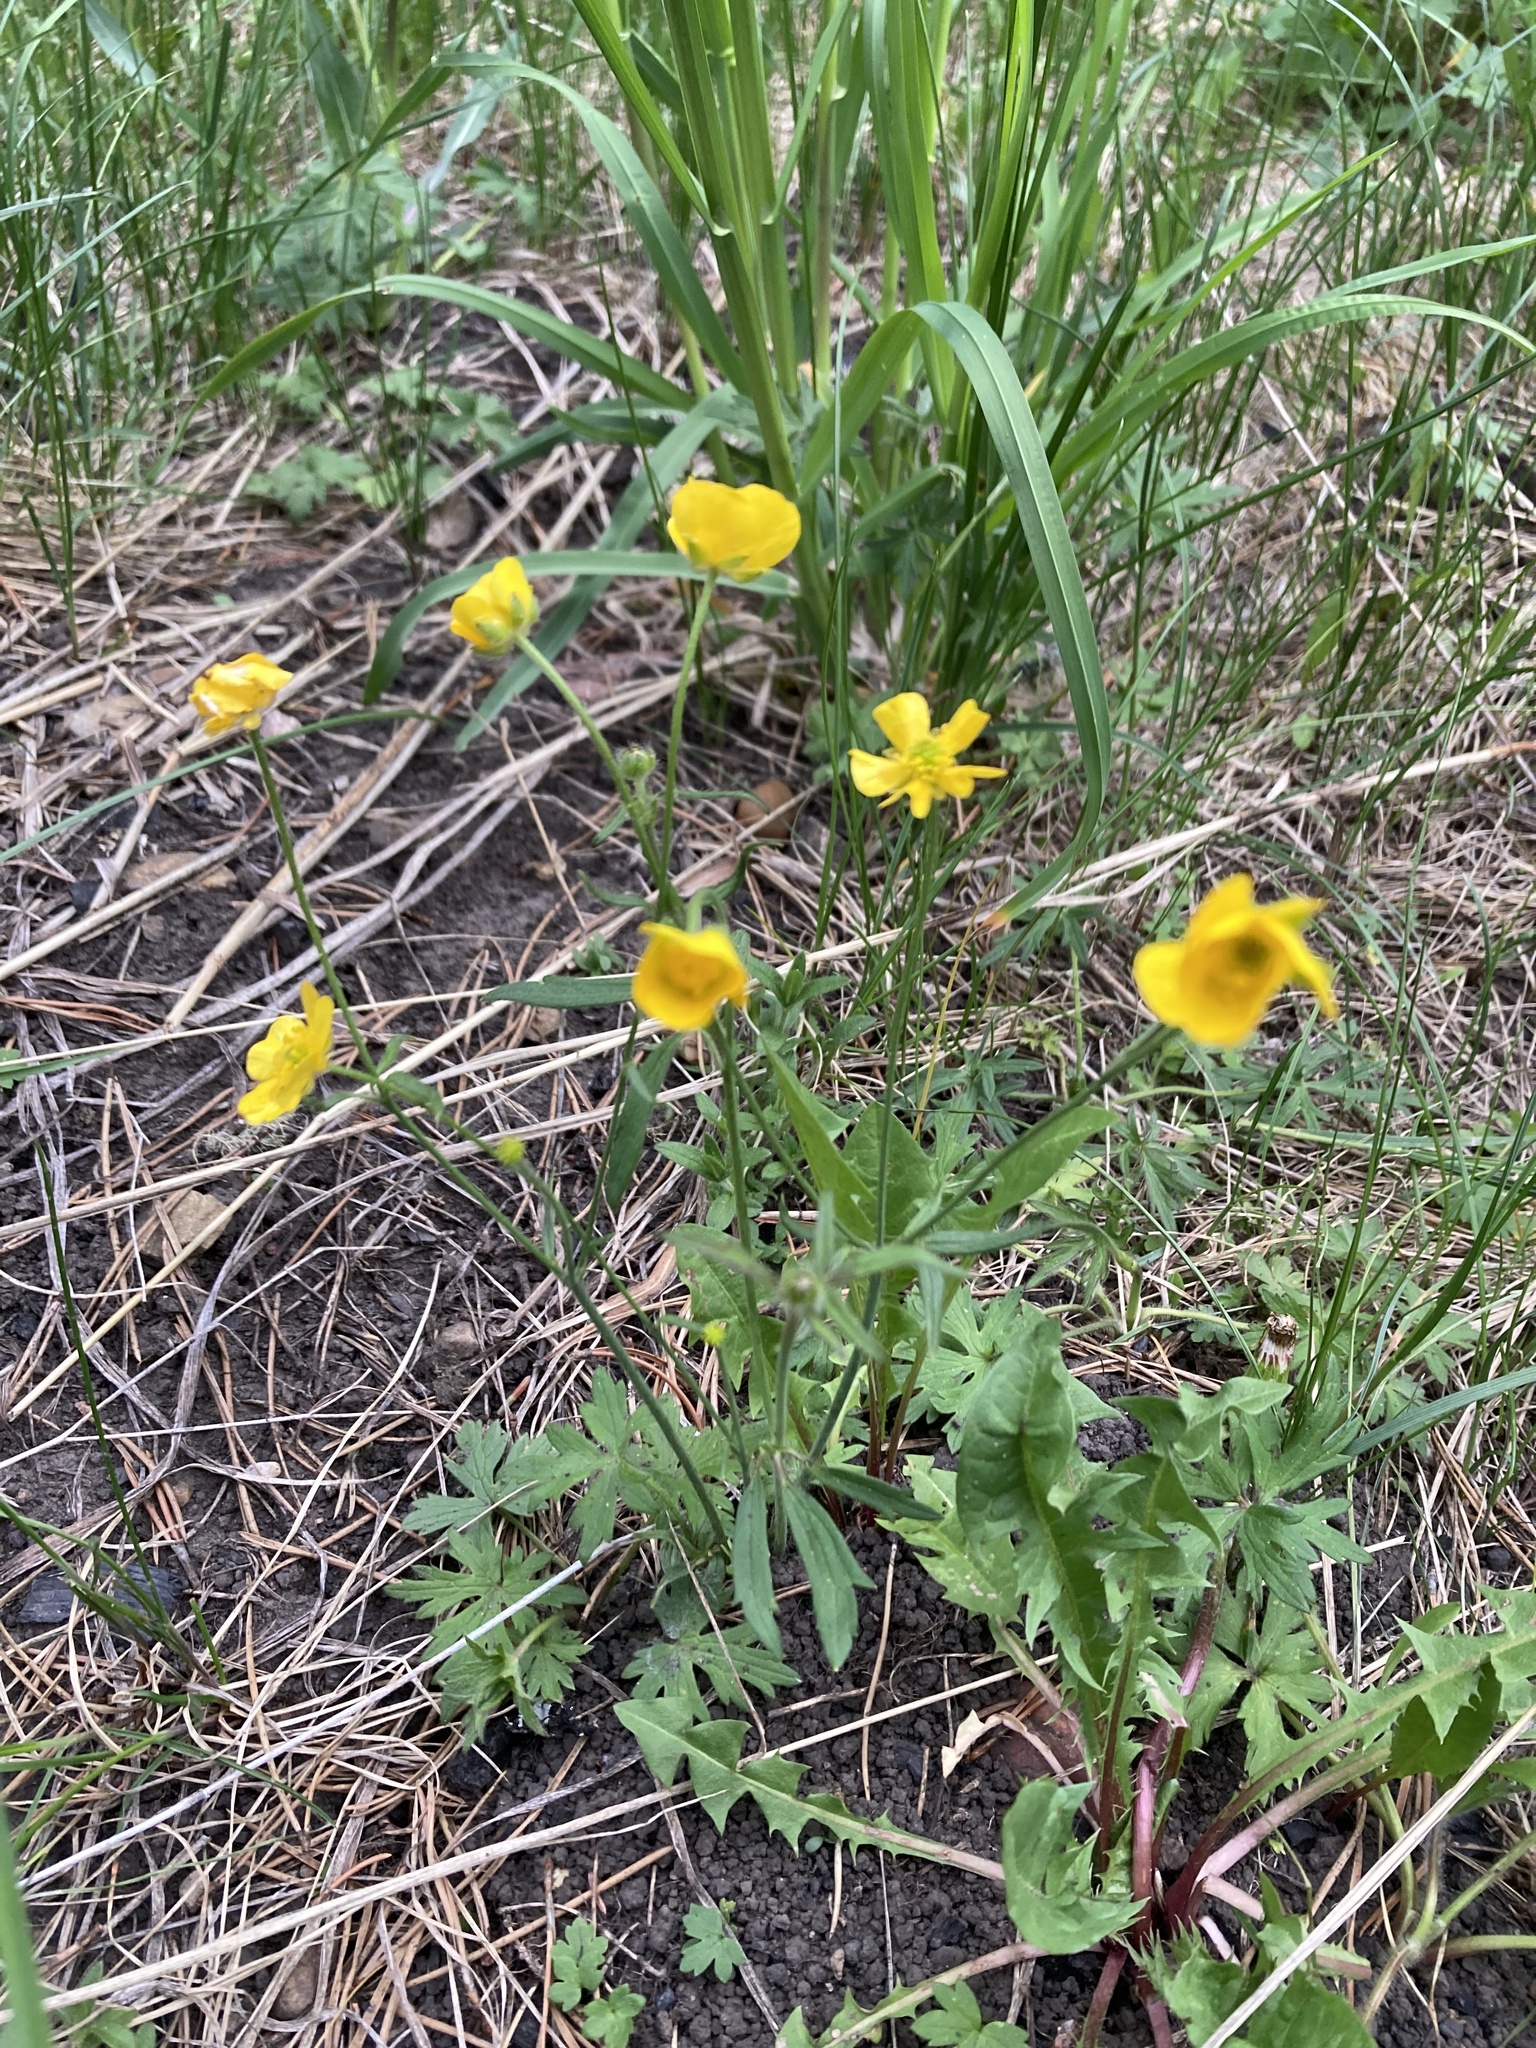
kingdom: Plantae
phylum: Tracheophyta
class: Magnoliopsida
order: Ranunculales
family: Ranunculaceae
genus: Ranunculus
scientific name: Ranunculus acris
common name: Meadow buttercup
